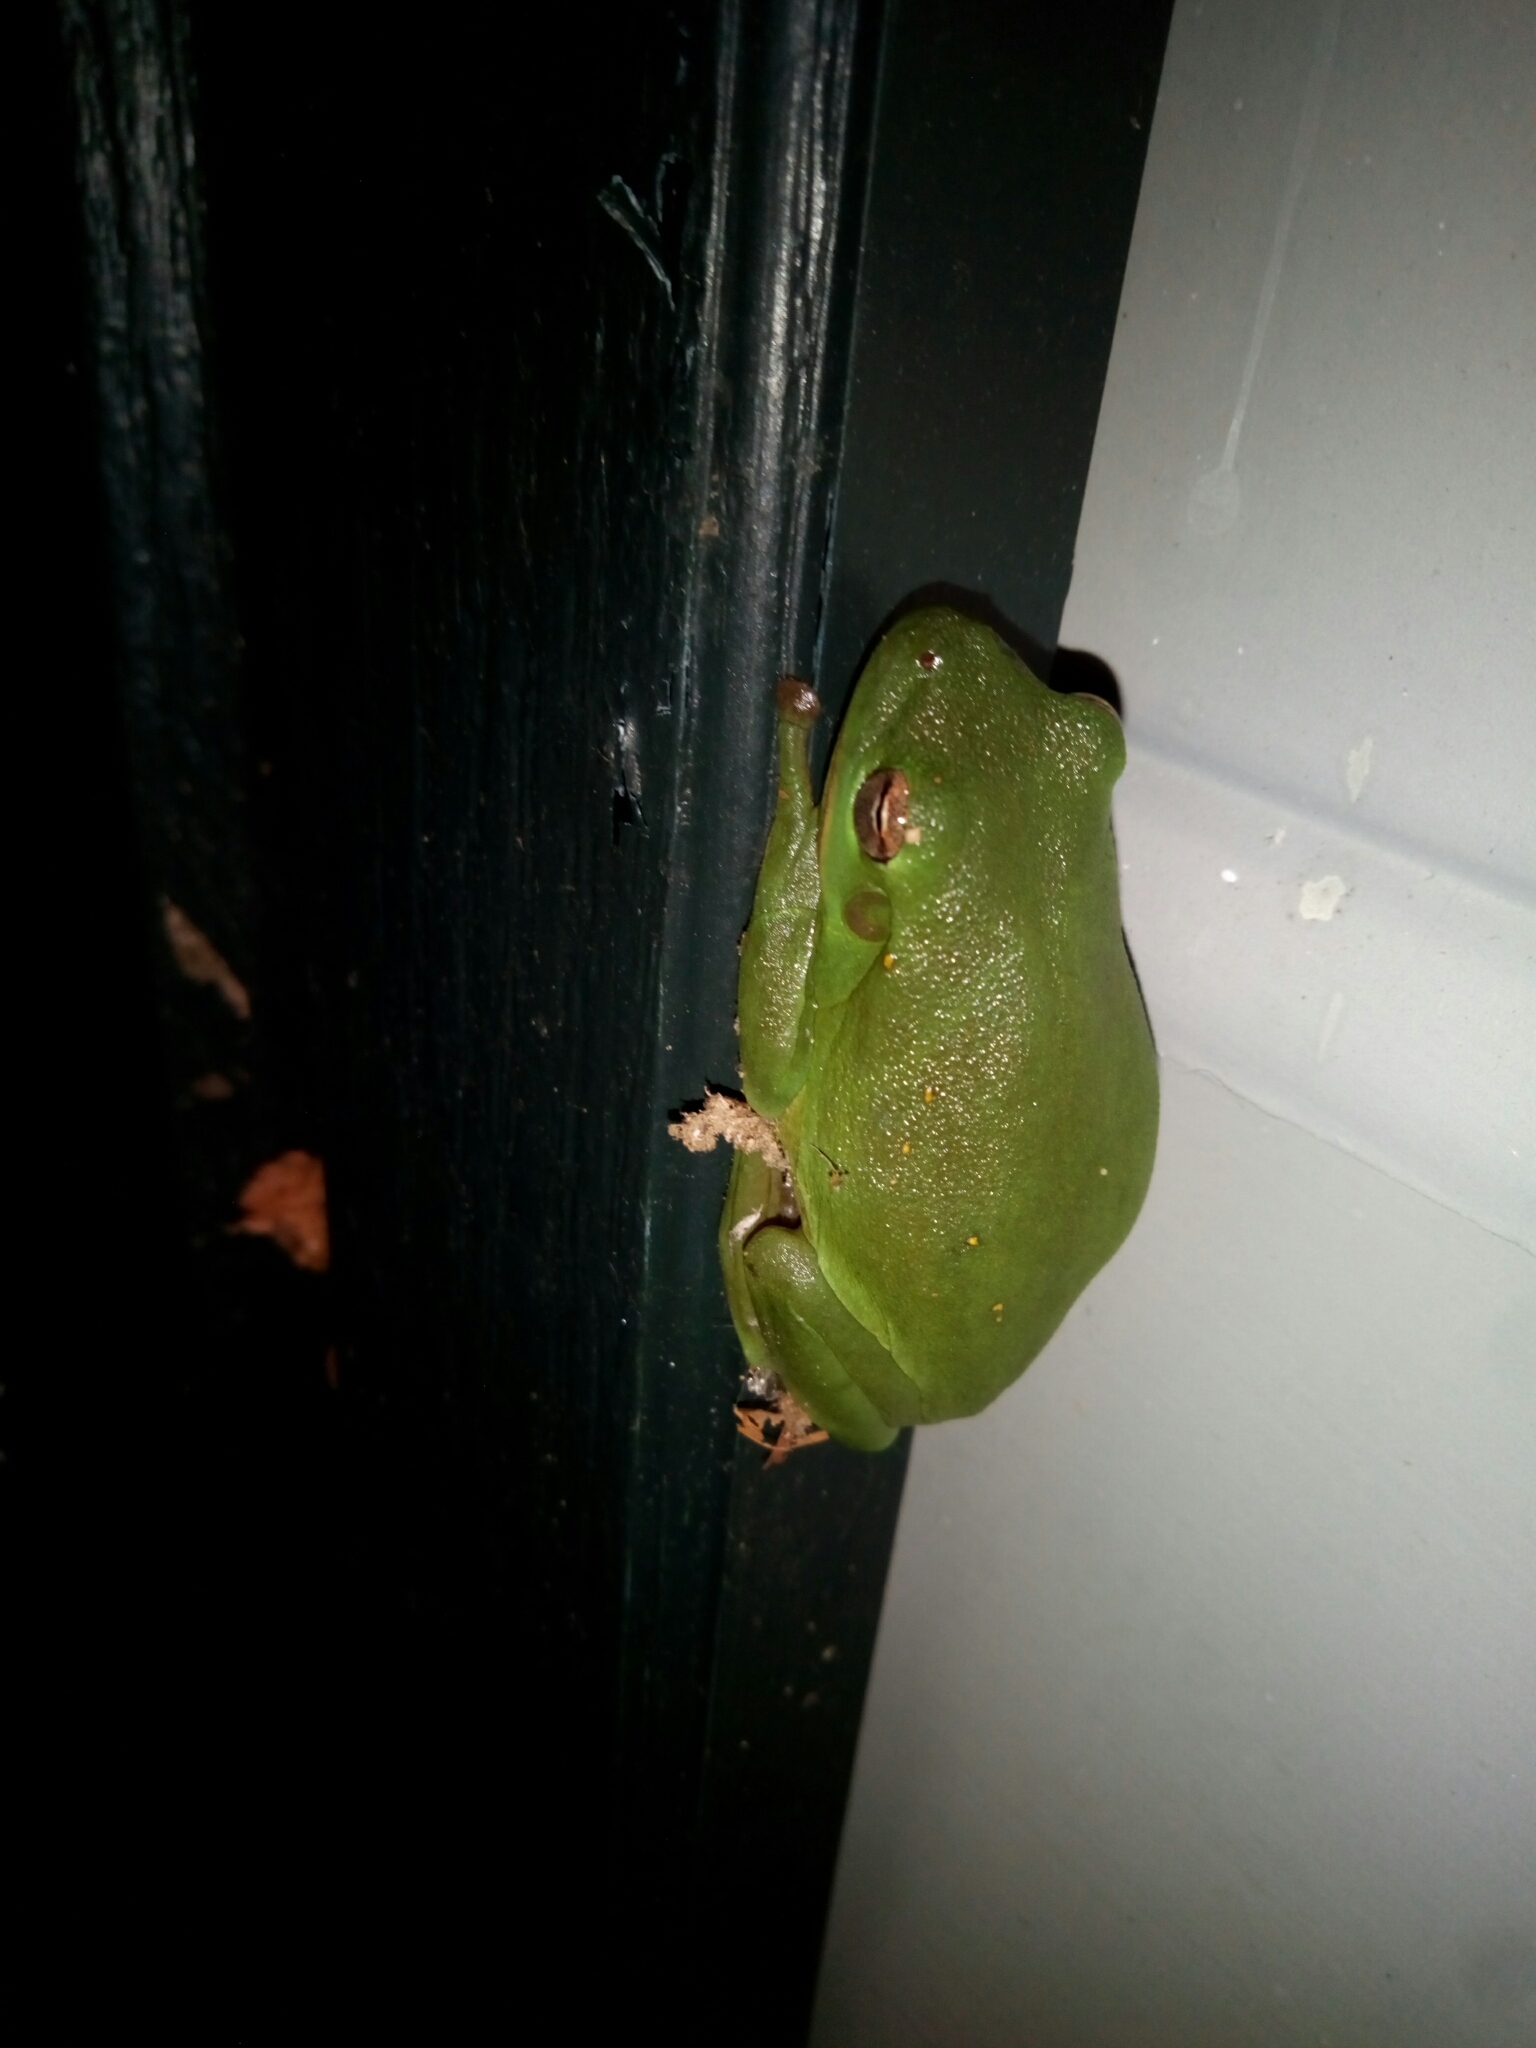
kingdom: Animalia
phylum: Chordata
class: Amphibia
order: Anura
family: Hylidae
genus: Dryophytes
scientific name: Dryophytes cinereus
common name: Green treefrog
